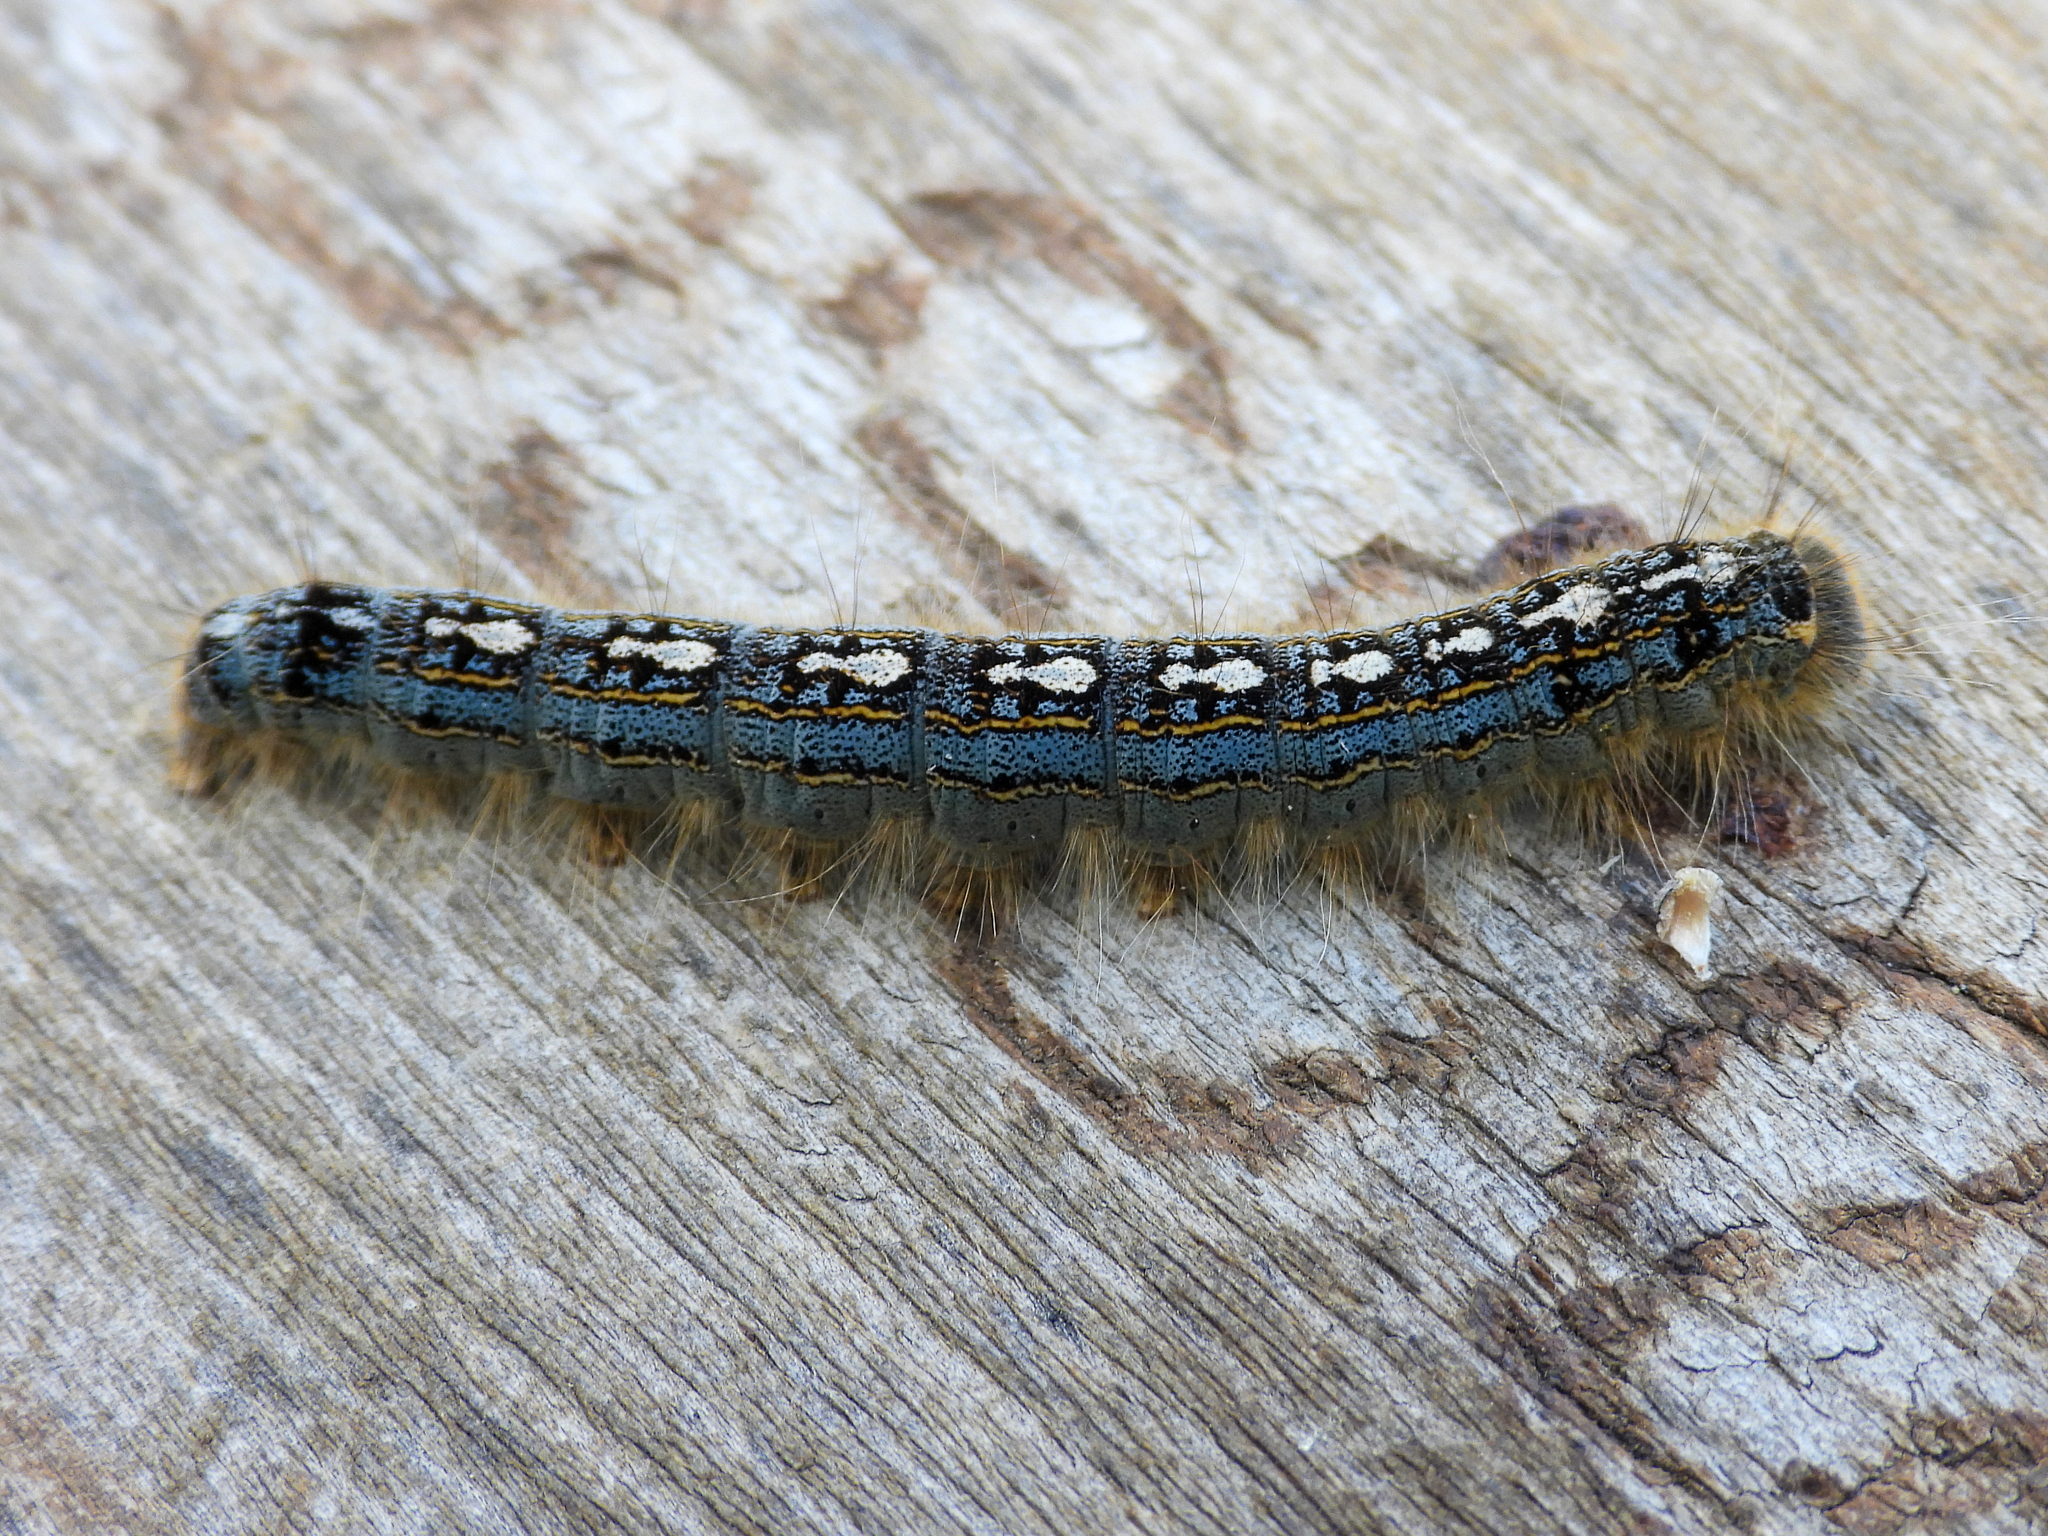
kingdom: Animalia
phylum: Arthropoda
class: Insecta
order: Lepidoptera
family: Lasiocampidae
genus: Malacosoma
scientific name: Malacosoma disstria
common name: Forest tent caterpillar
